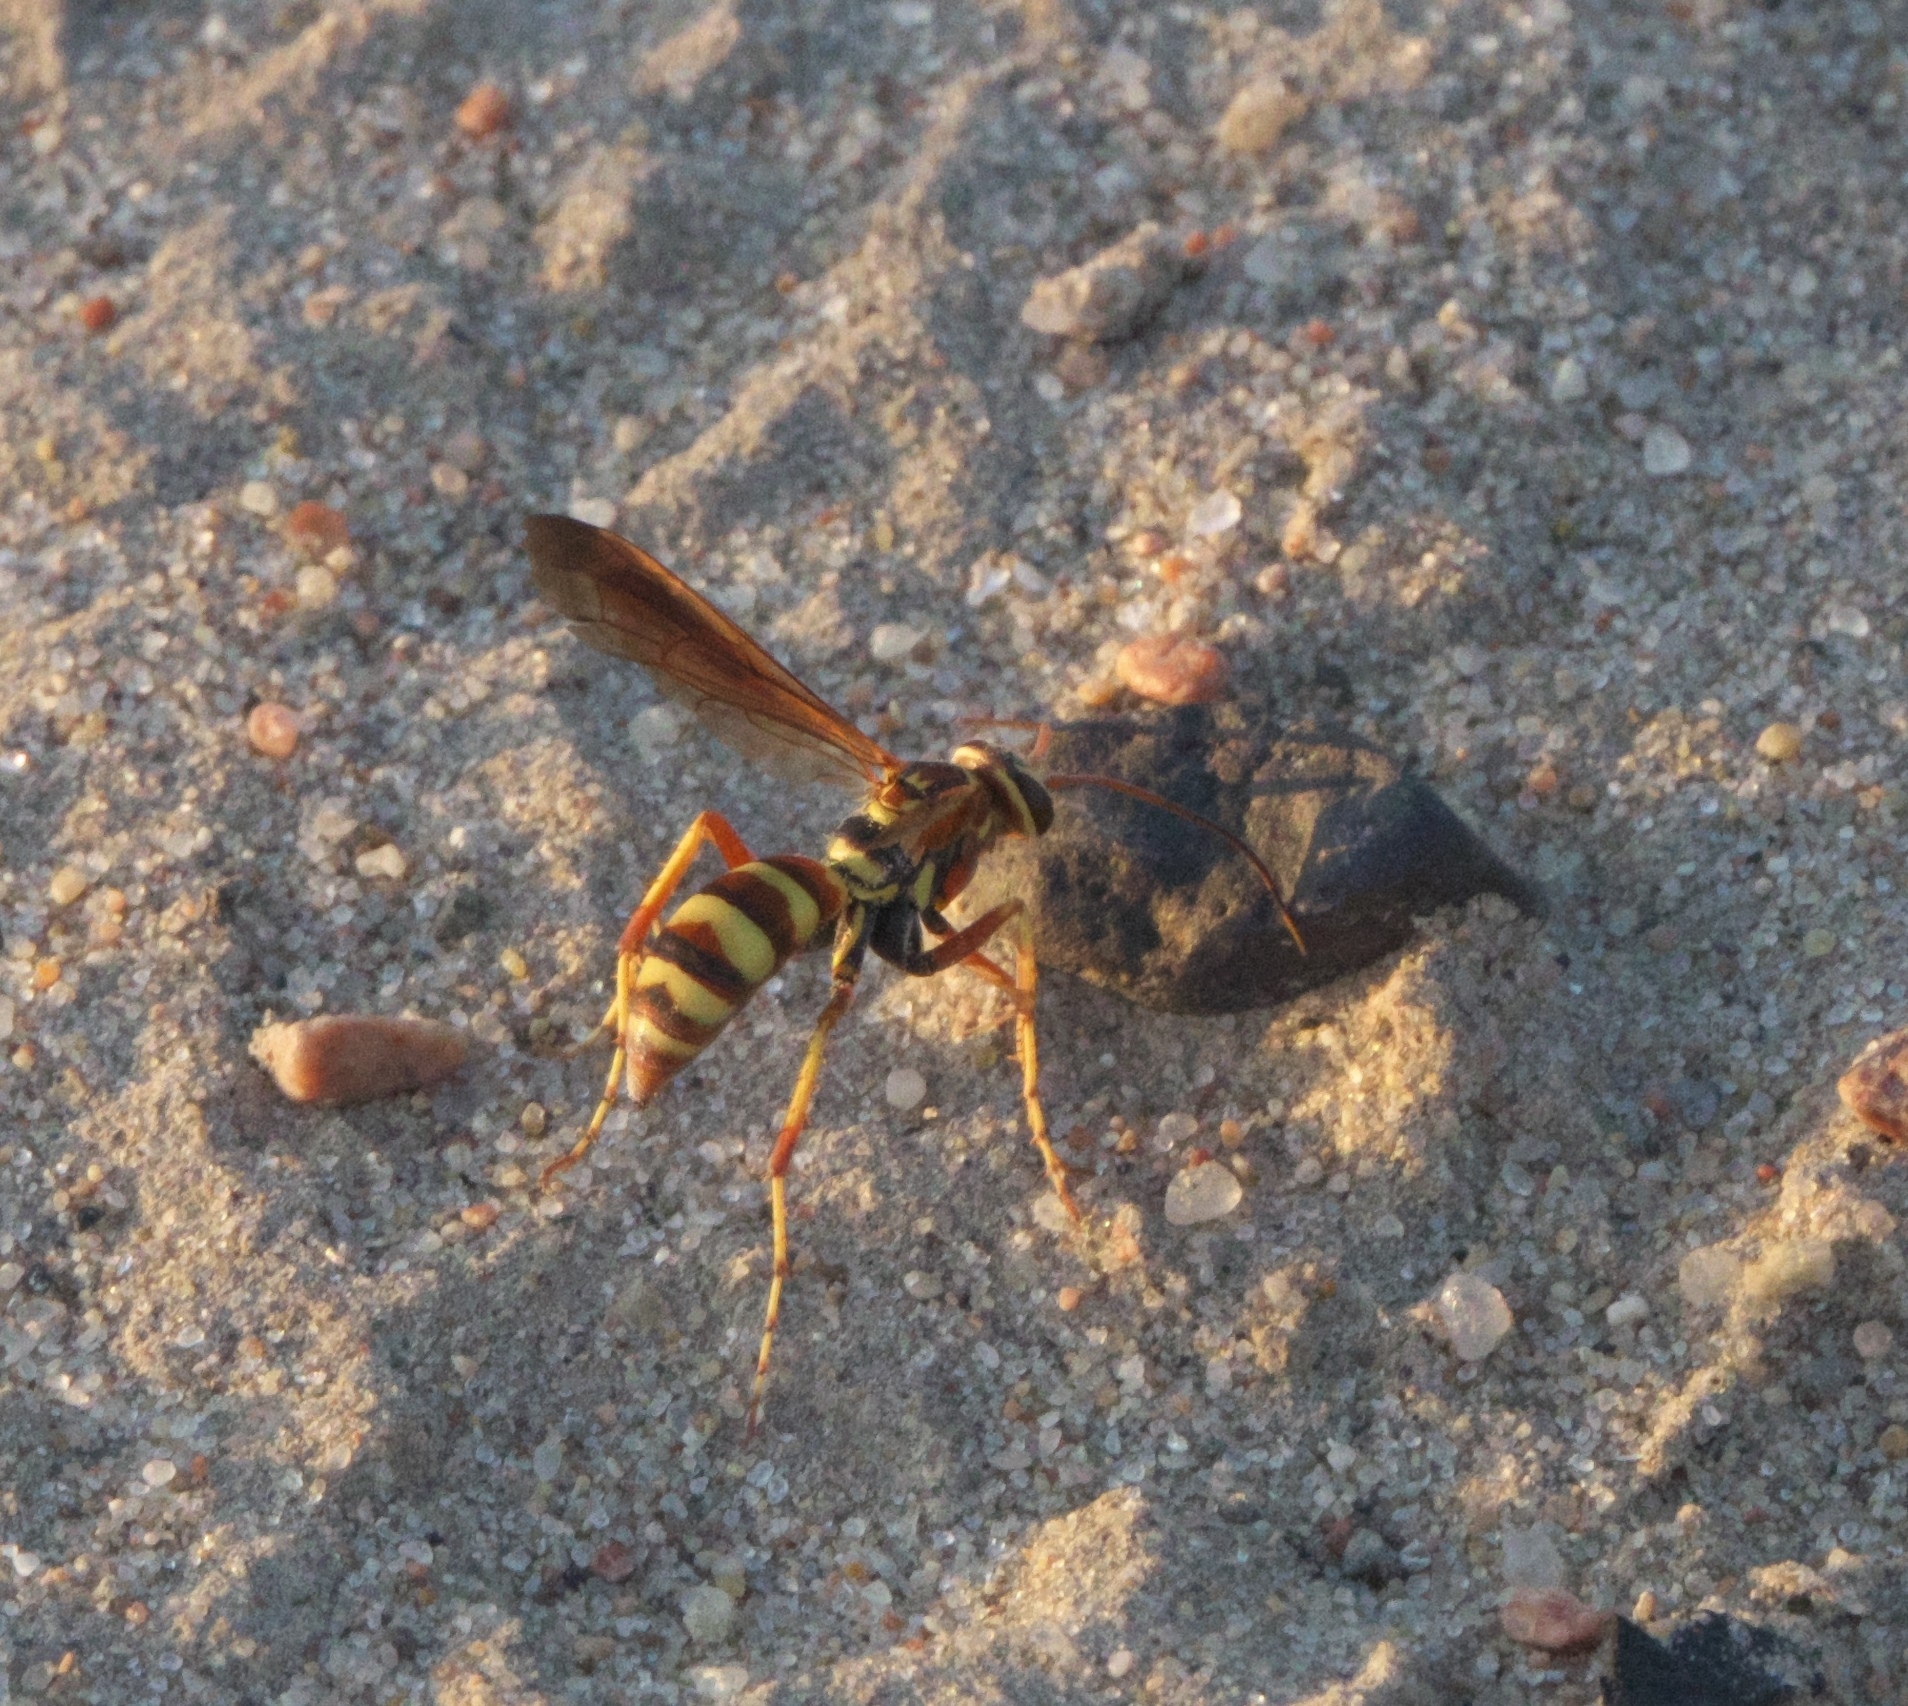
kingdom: Animalia
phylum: Arthropoda
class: Insecta
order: Hymenoptera
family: Pompilidae
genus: Poecilopompilus
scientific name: Poecilopompilus interruptus
